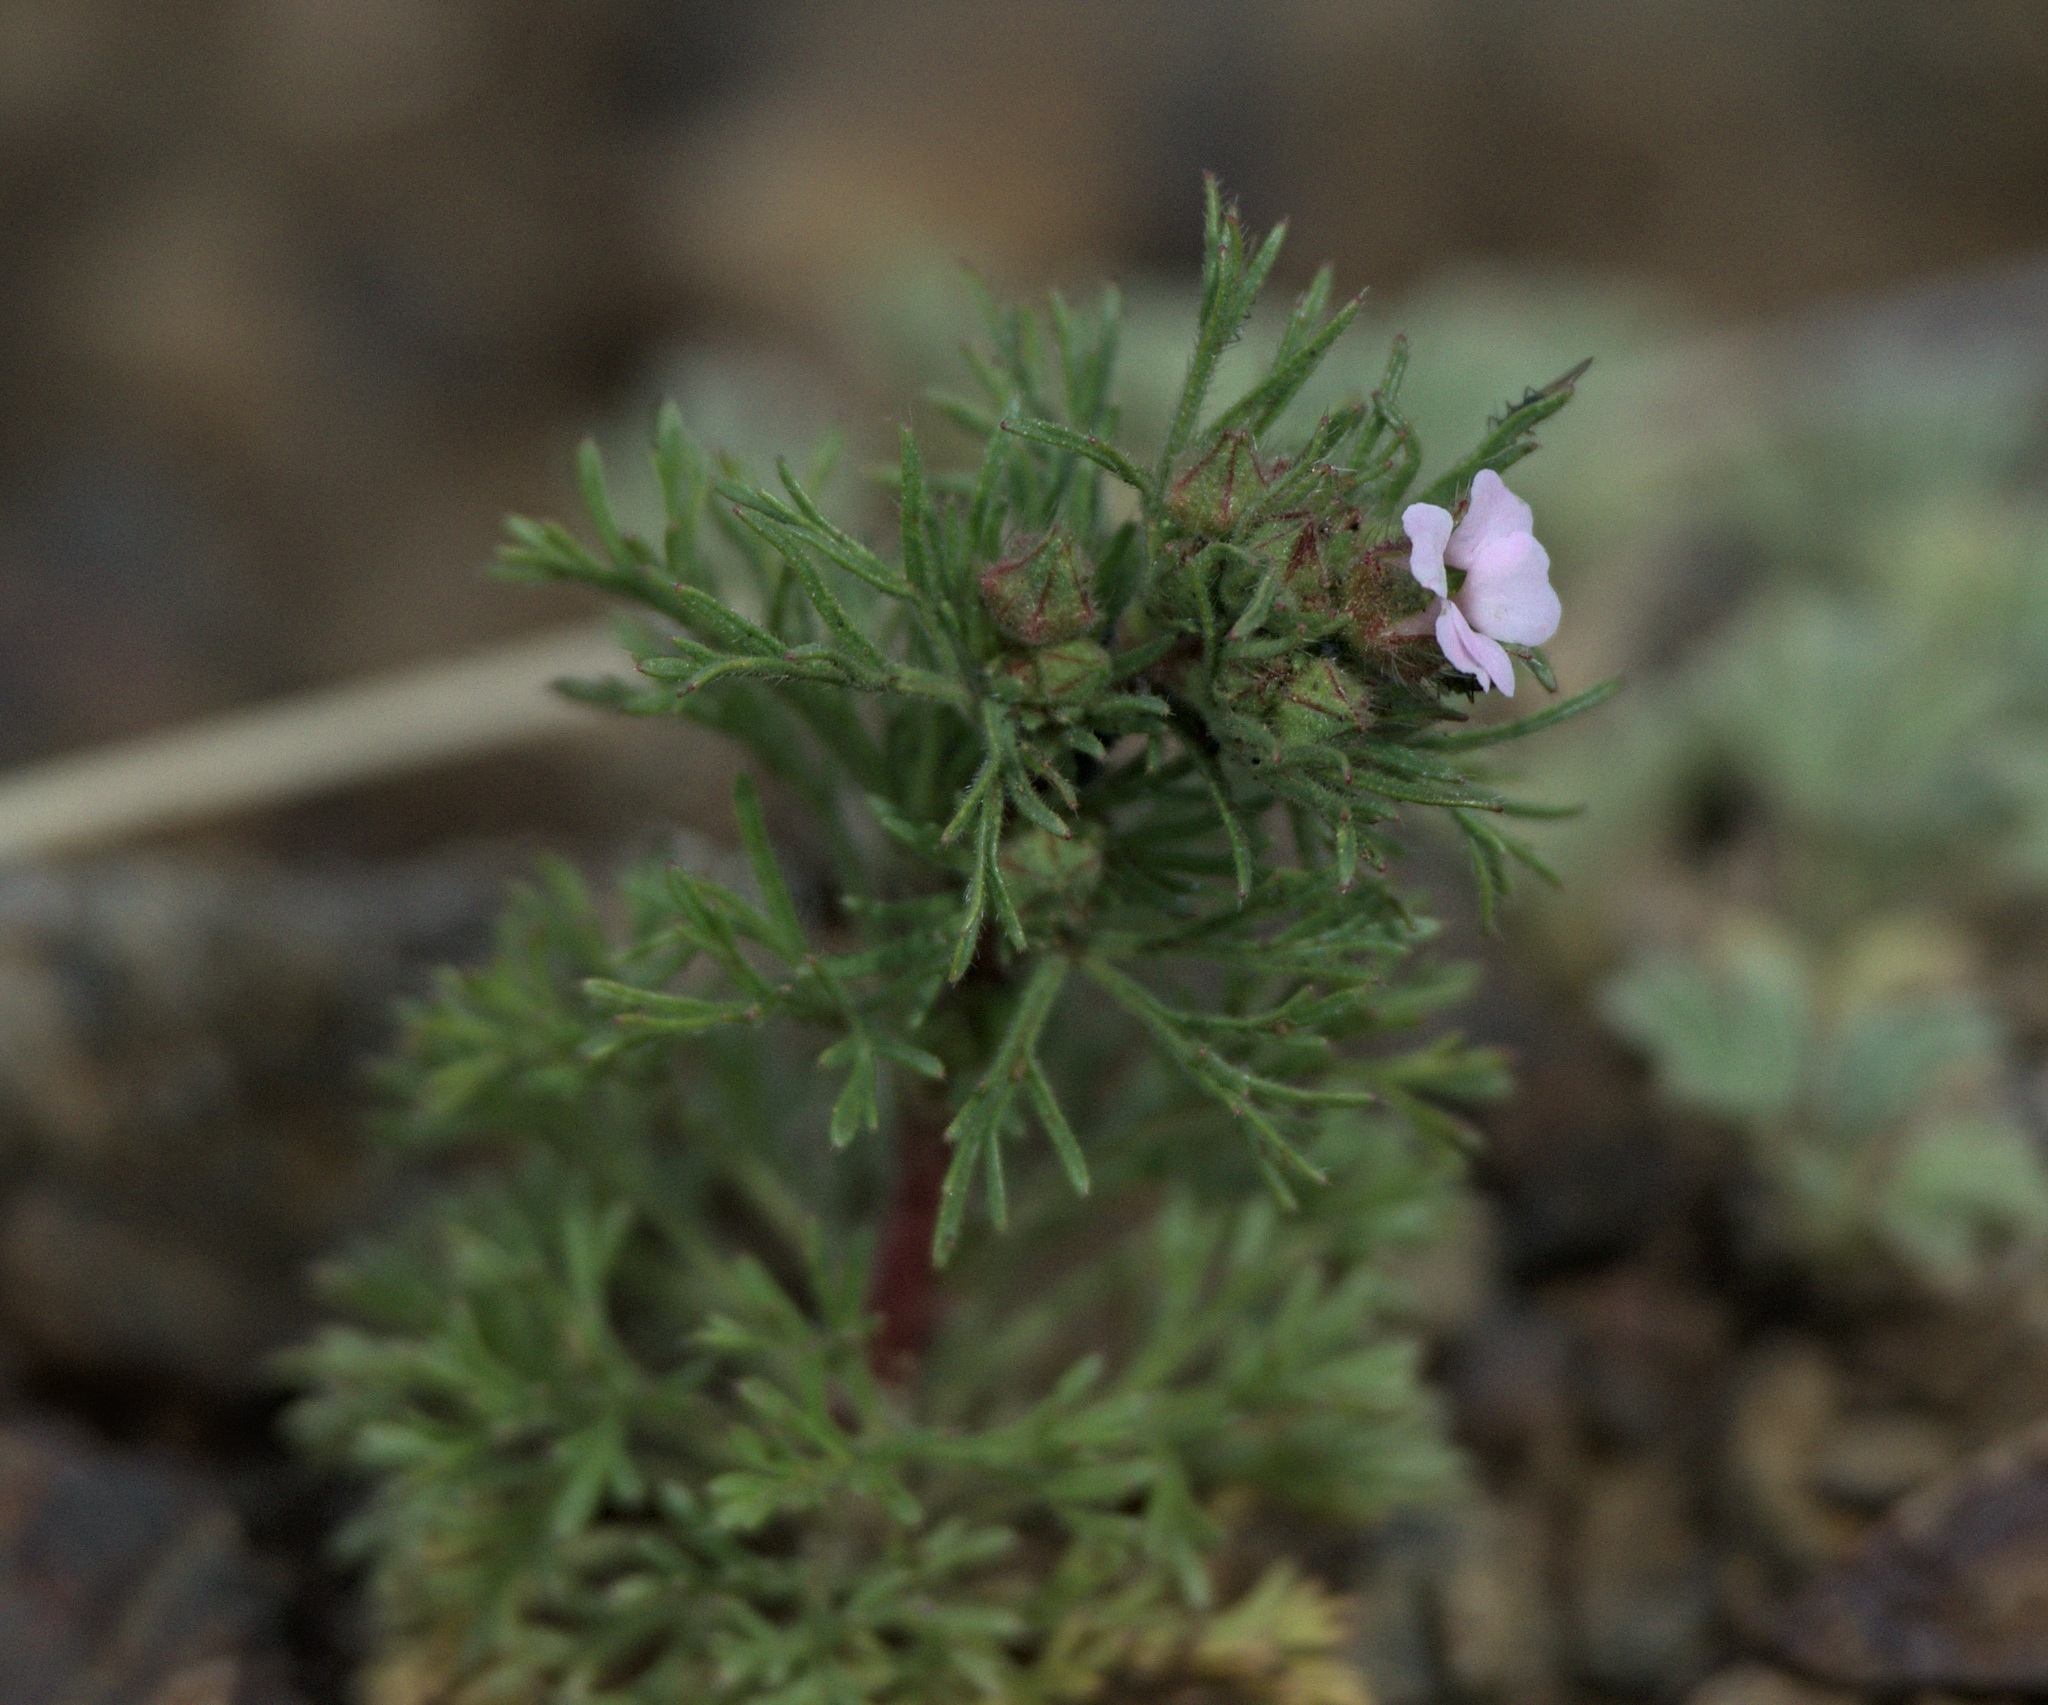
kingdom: Plantae
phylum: Tracheophyta
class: Magnoliopsida
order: Rosales
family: Rosaceae
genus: Chamaerhodos
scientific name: Chamaerhodos erecta
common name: American chamaerhodos
